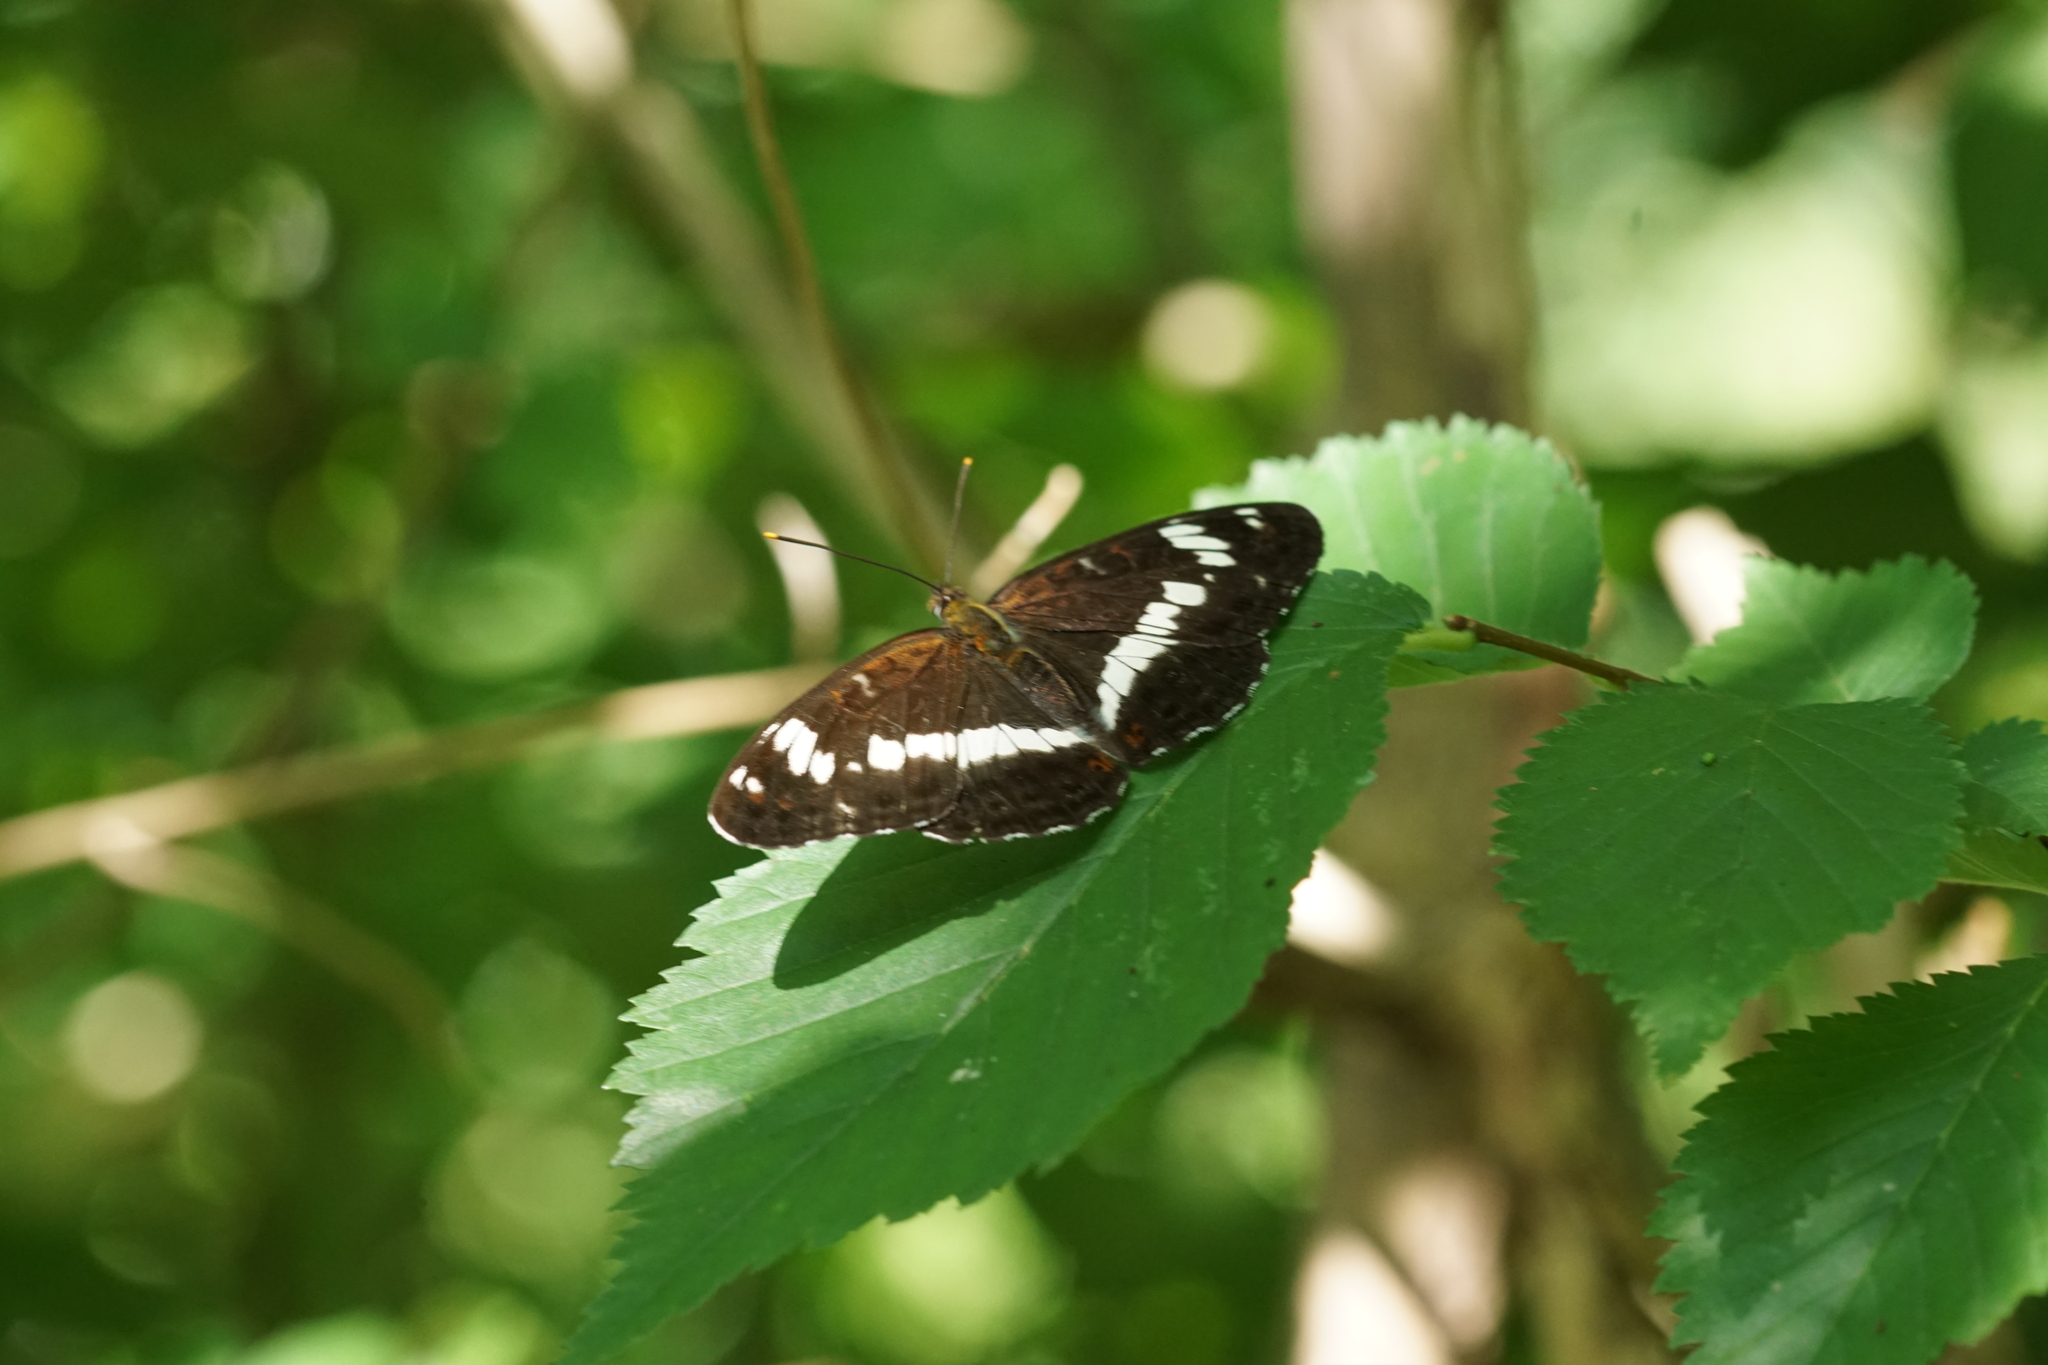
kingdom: Animalia
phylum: Arthropoda
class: Insecta
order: Lepidoptera
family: Nymphalidae
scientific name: Nymphalidae
